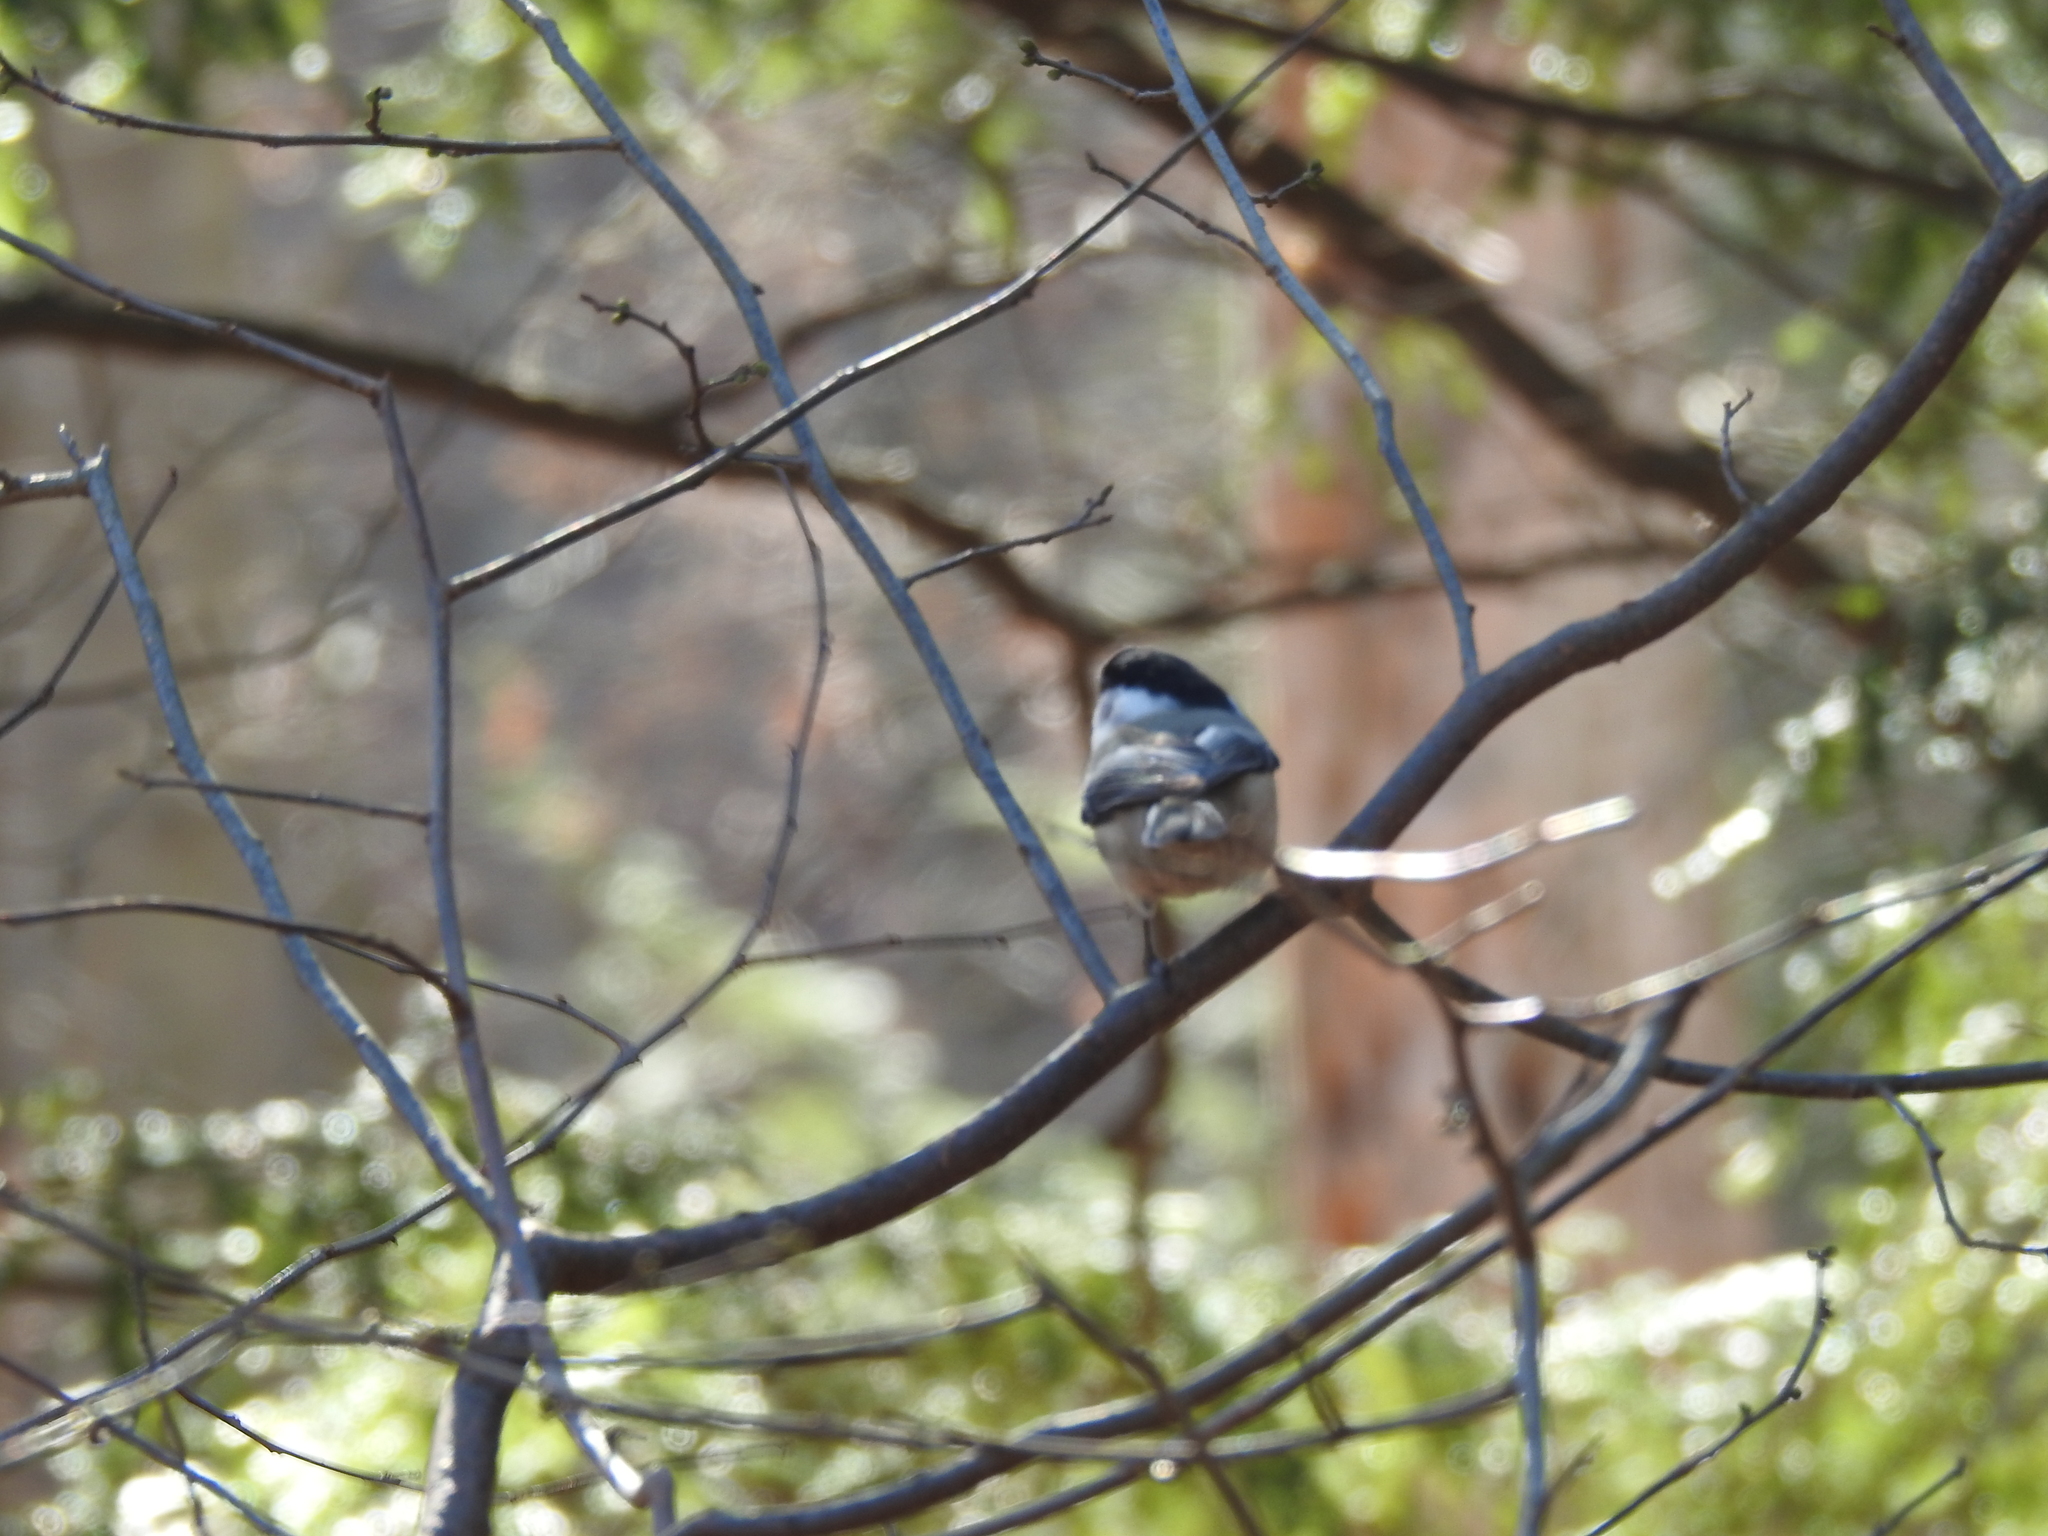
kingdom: Animalia
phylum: Chordata
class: Aves
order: Passeriformes
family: Paridae
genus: Poecile
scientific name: Poecile atricapillus
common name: Black-capped chickadee
